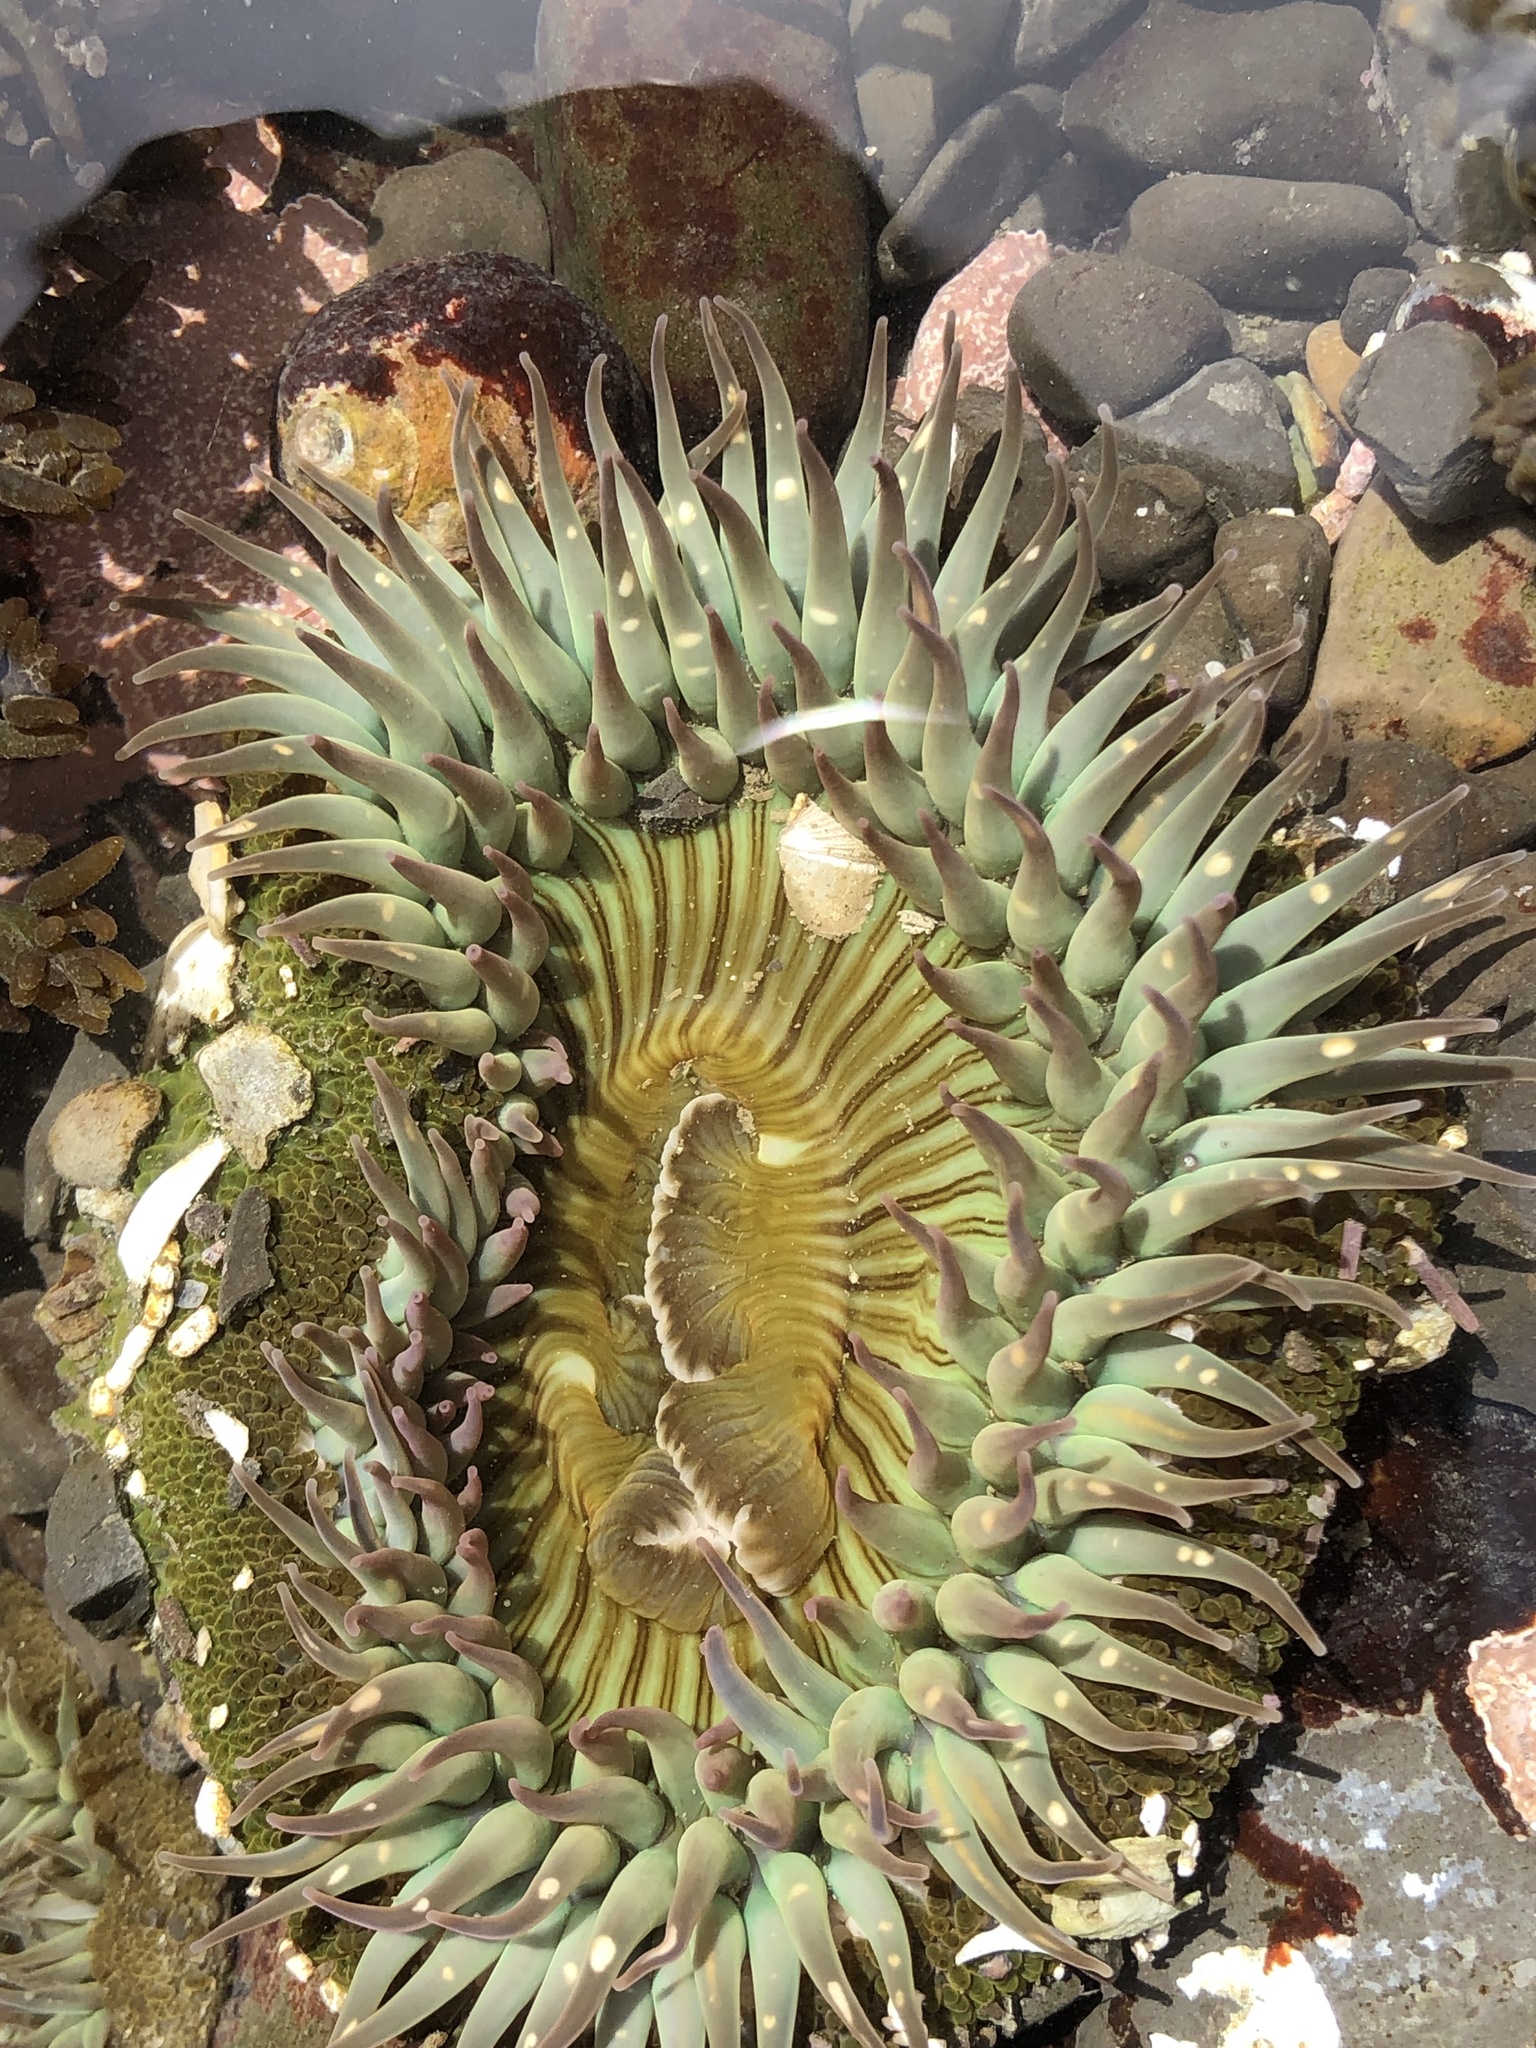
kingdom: Animalia
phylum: Cnidaria
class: Anthozoa
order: Actiniaria
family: Actiniidae
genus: Anthopleura
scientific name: Anthopleura sola
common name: Sun anemone
